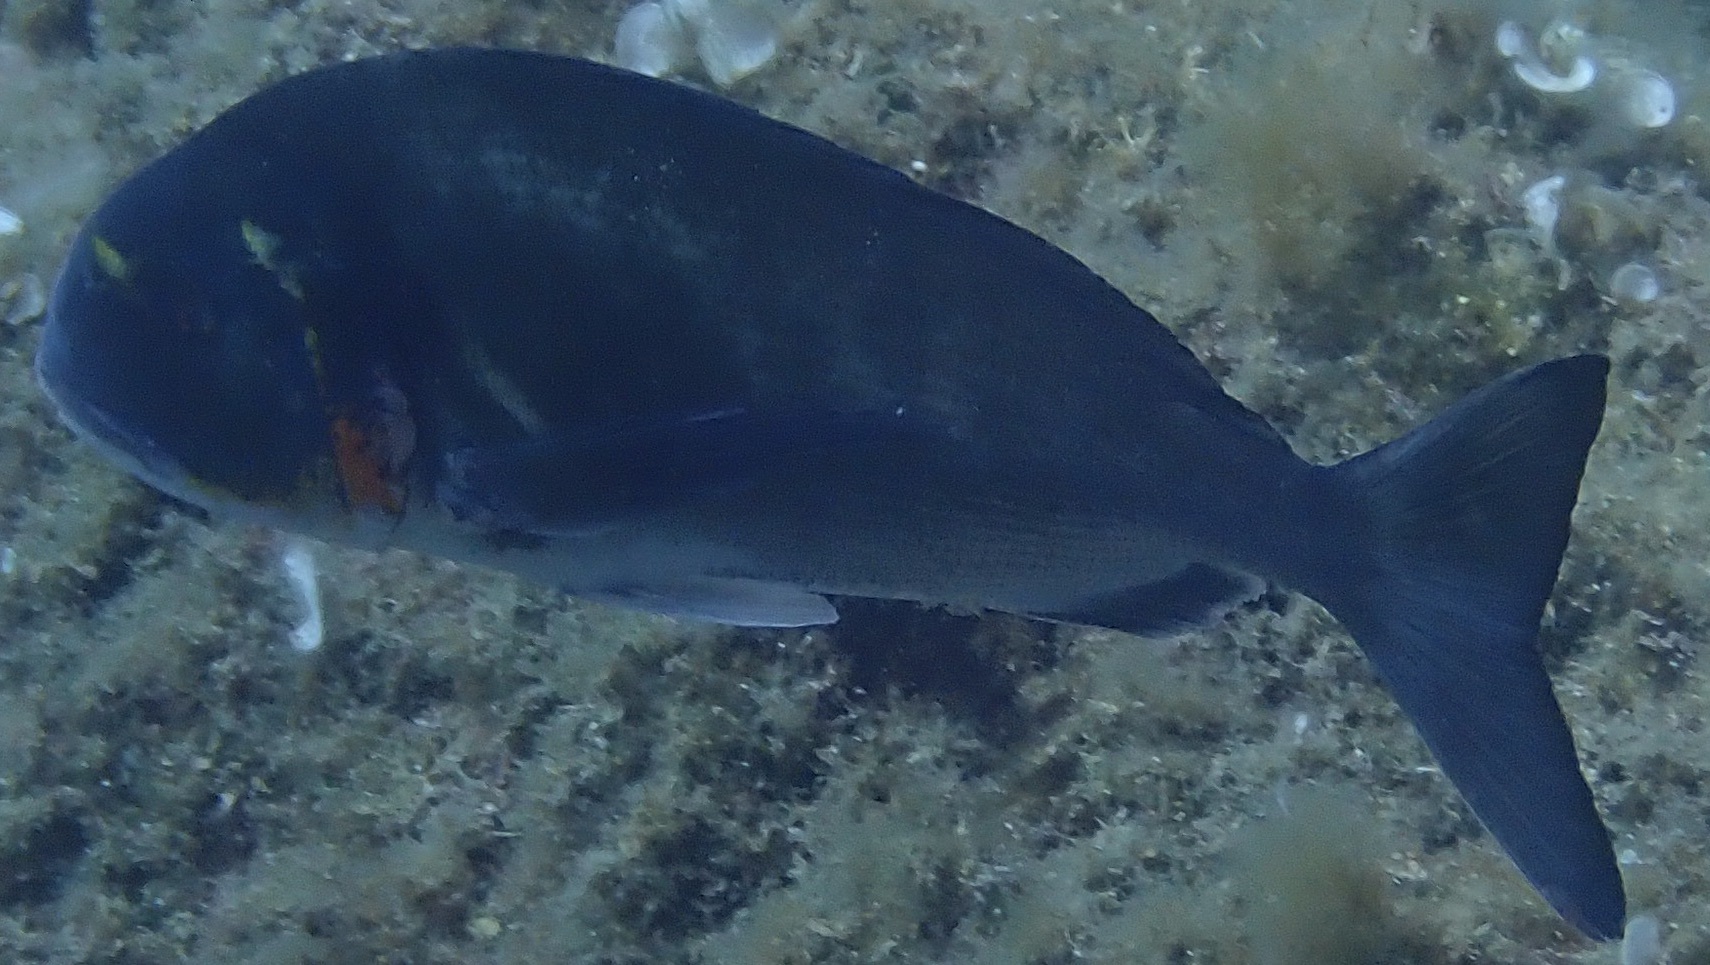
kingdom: Animalia
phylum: Chordata
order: Perciformes
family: Sparidae
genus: Sparus
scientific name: Sparus aurata
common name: Gilthead
